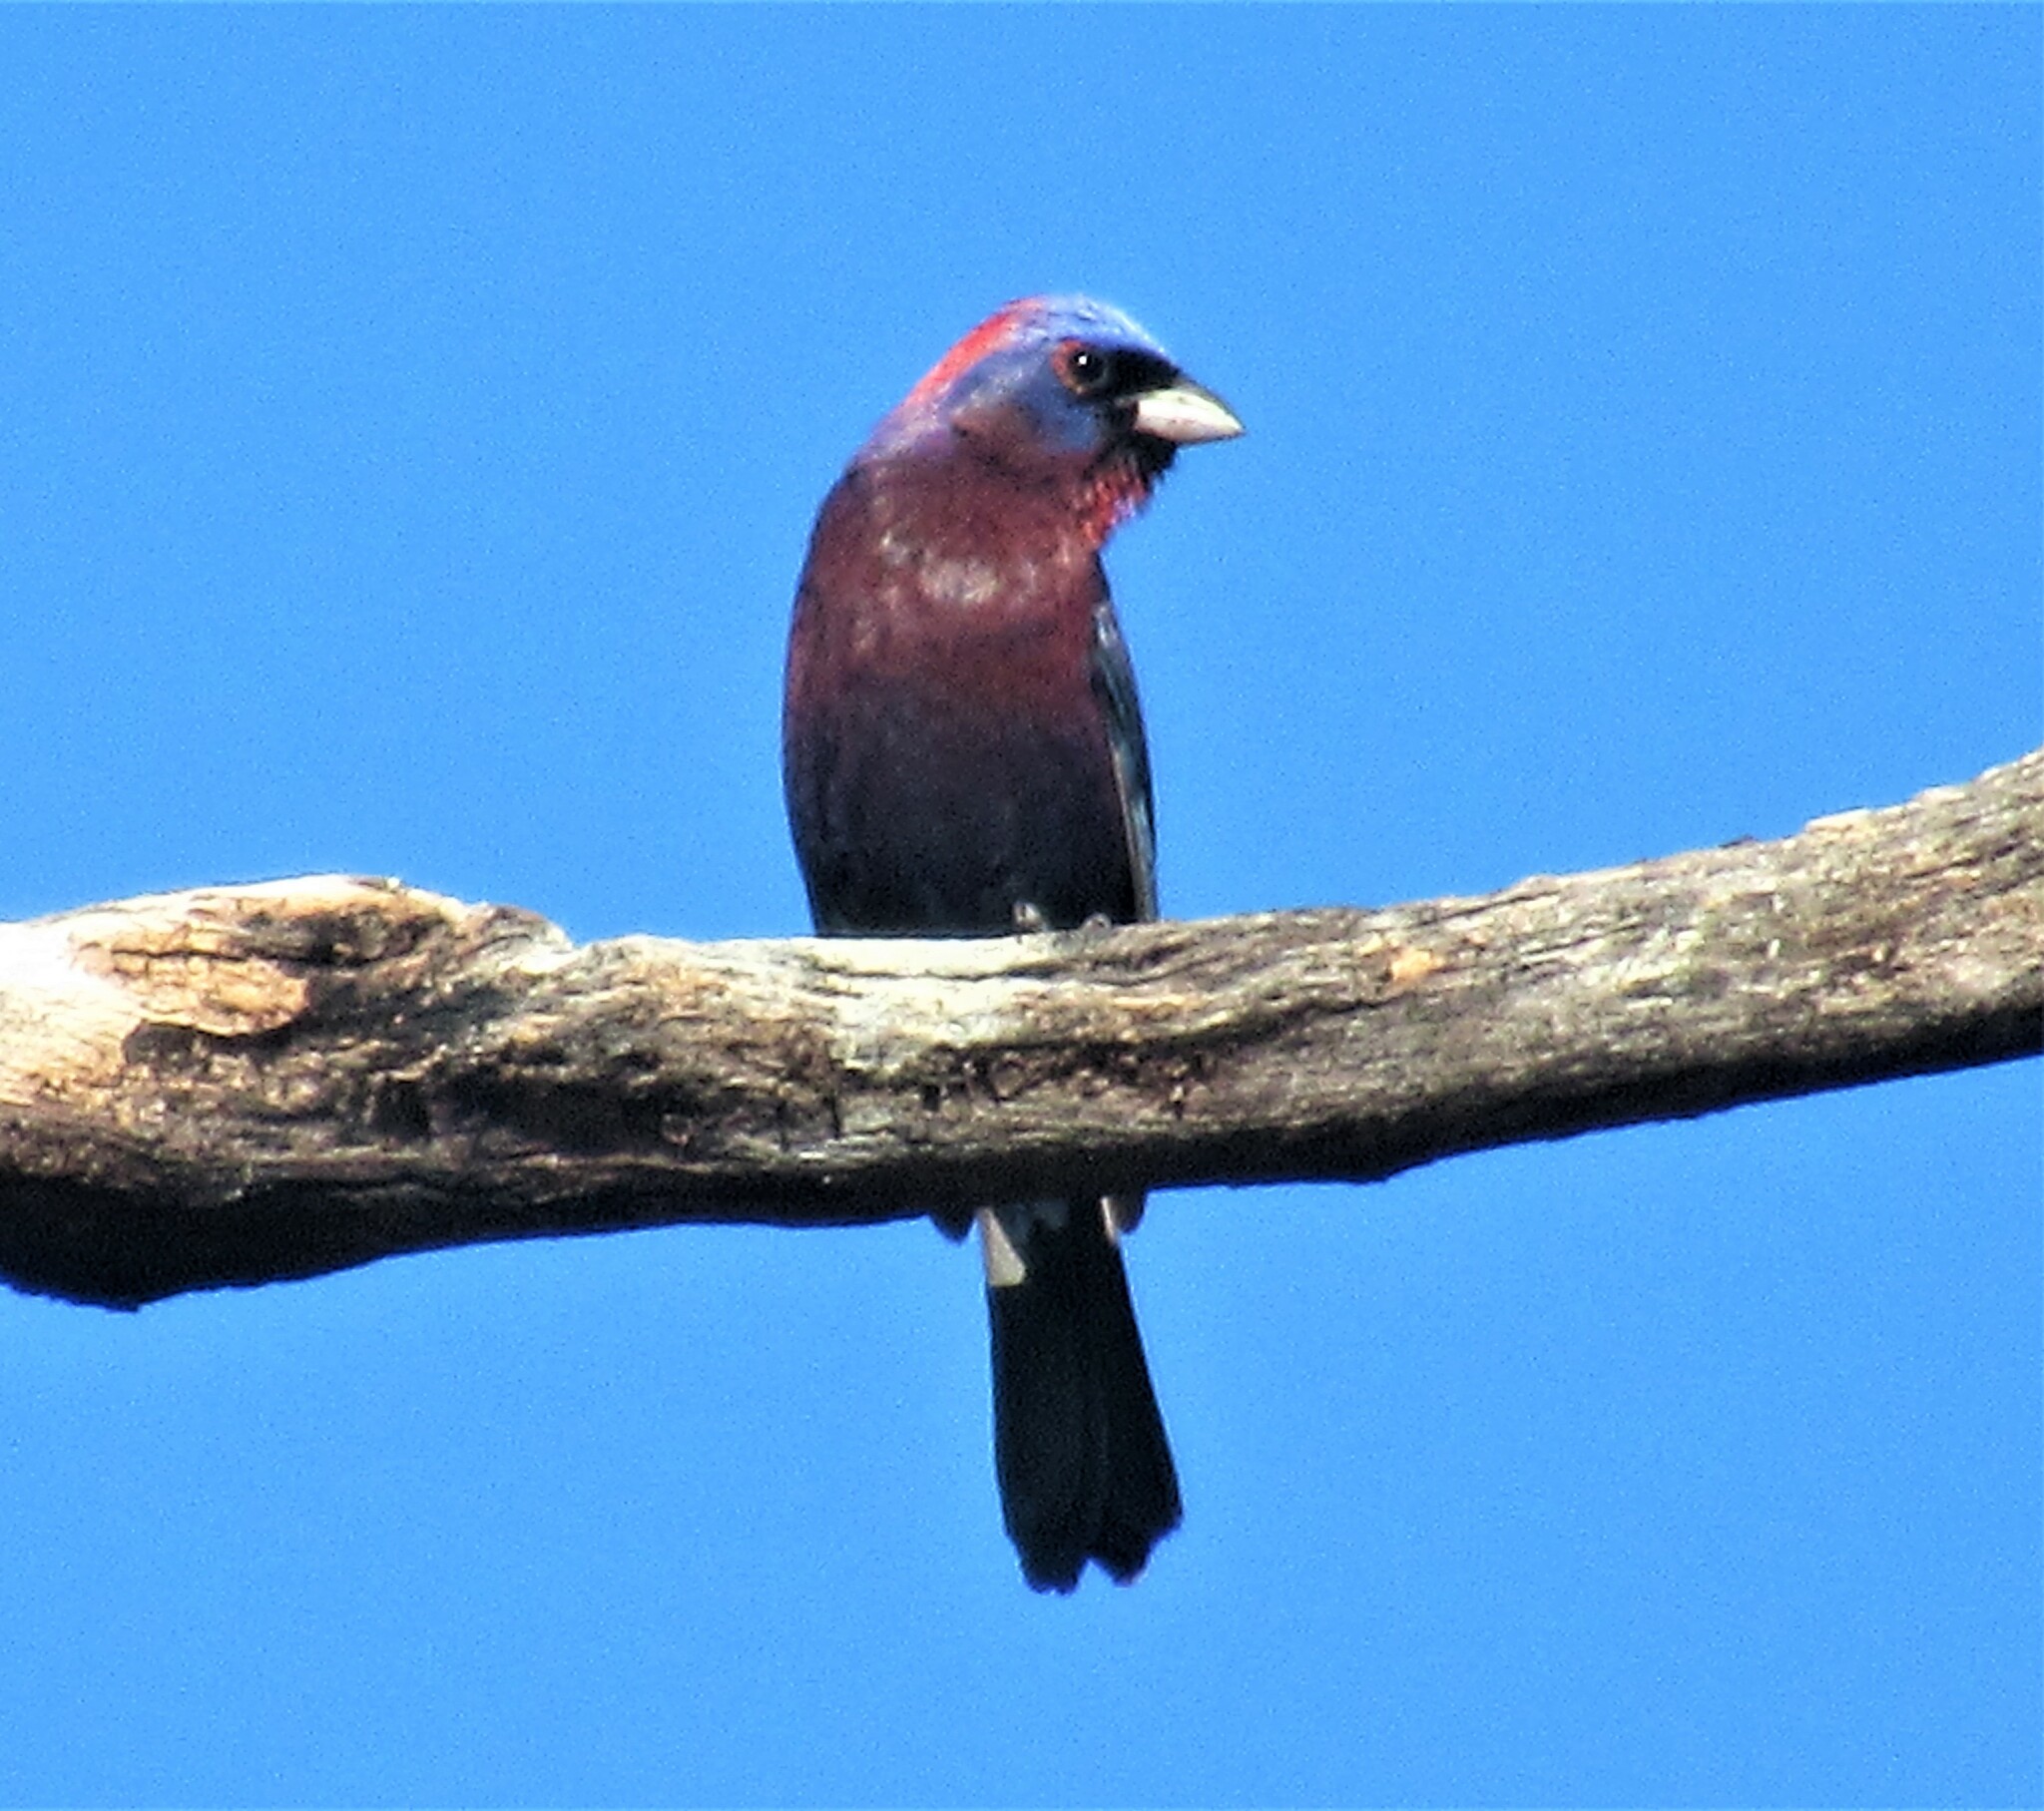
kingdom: Animalia
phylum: Chordata
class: Aves
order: Passeriformes
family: Cardinalidae
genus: Passerina
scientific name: Passerina versicolor
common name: Varied bunting
